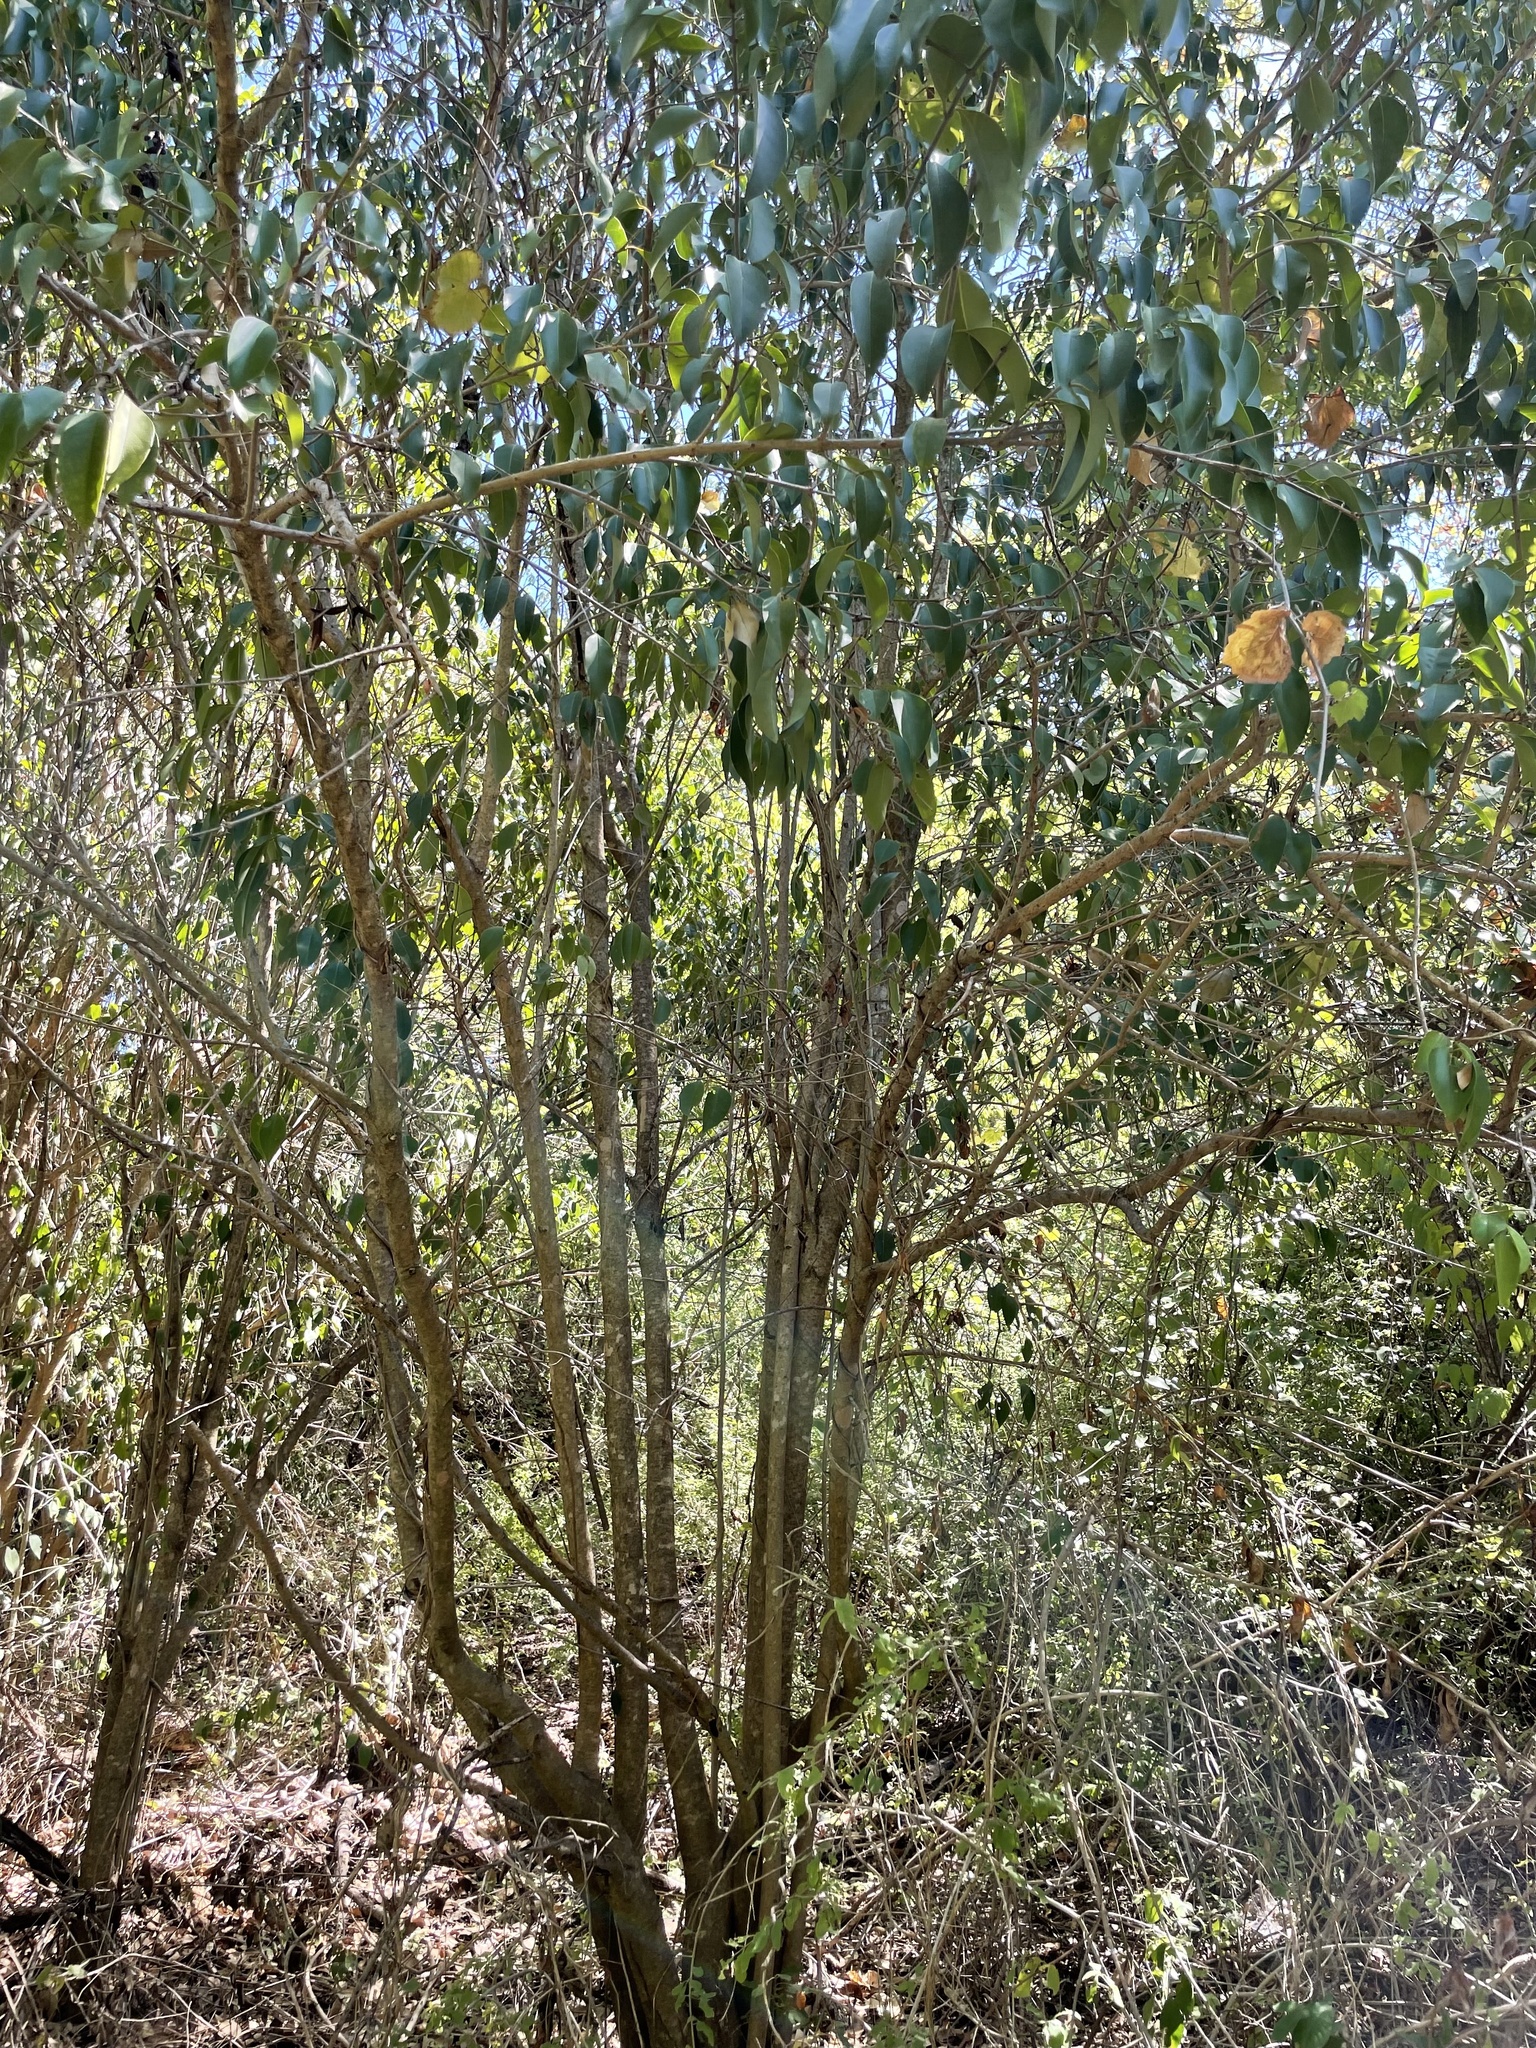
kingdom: Plantae
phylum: Tracheophyta
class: Magnoliopsida
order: Lamiales
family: Oleaceae
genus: Ligustrum
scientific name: Ligustrum lucidum
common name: Glossy privet
